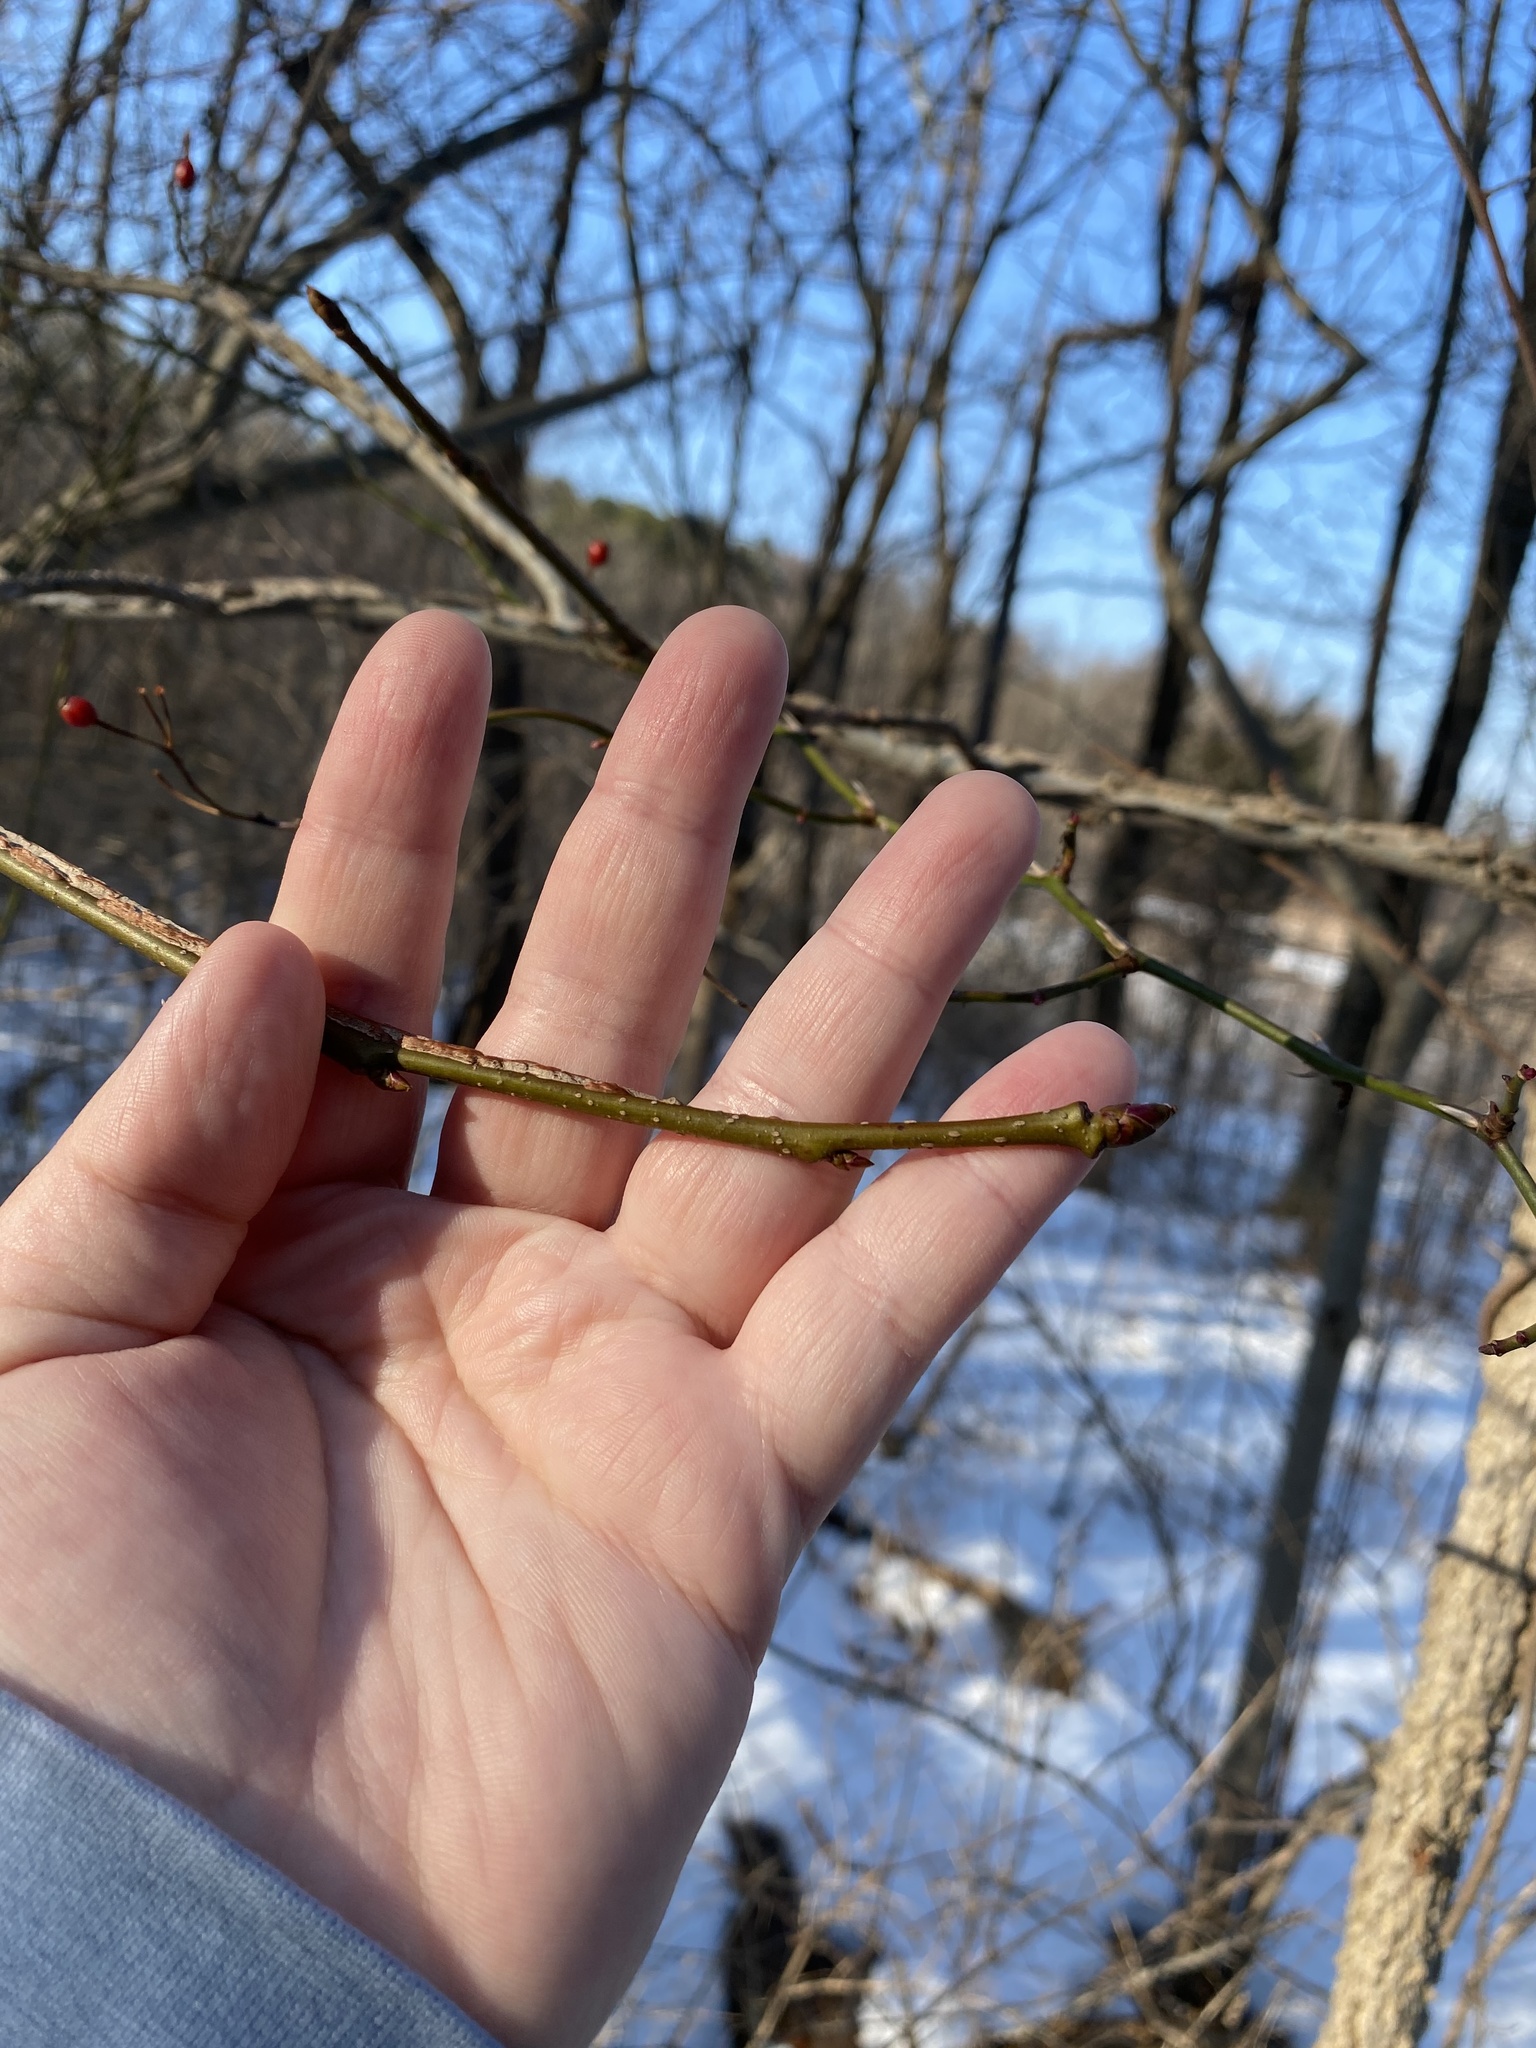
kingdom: Plantae
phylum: Tracheophyta
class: Magnoliopsida
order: Saxifragales
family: Altingiaceae
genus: Liquidambar
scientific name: Liquidambar styraciflua
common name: Sweet gum
